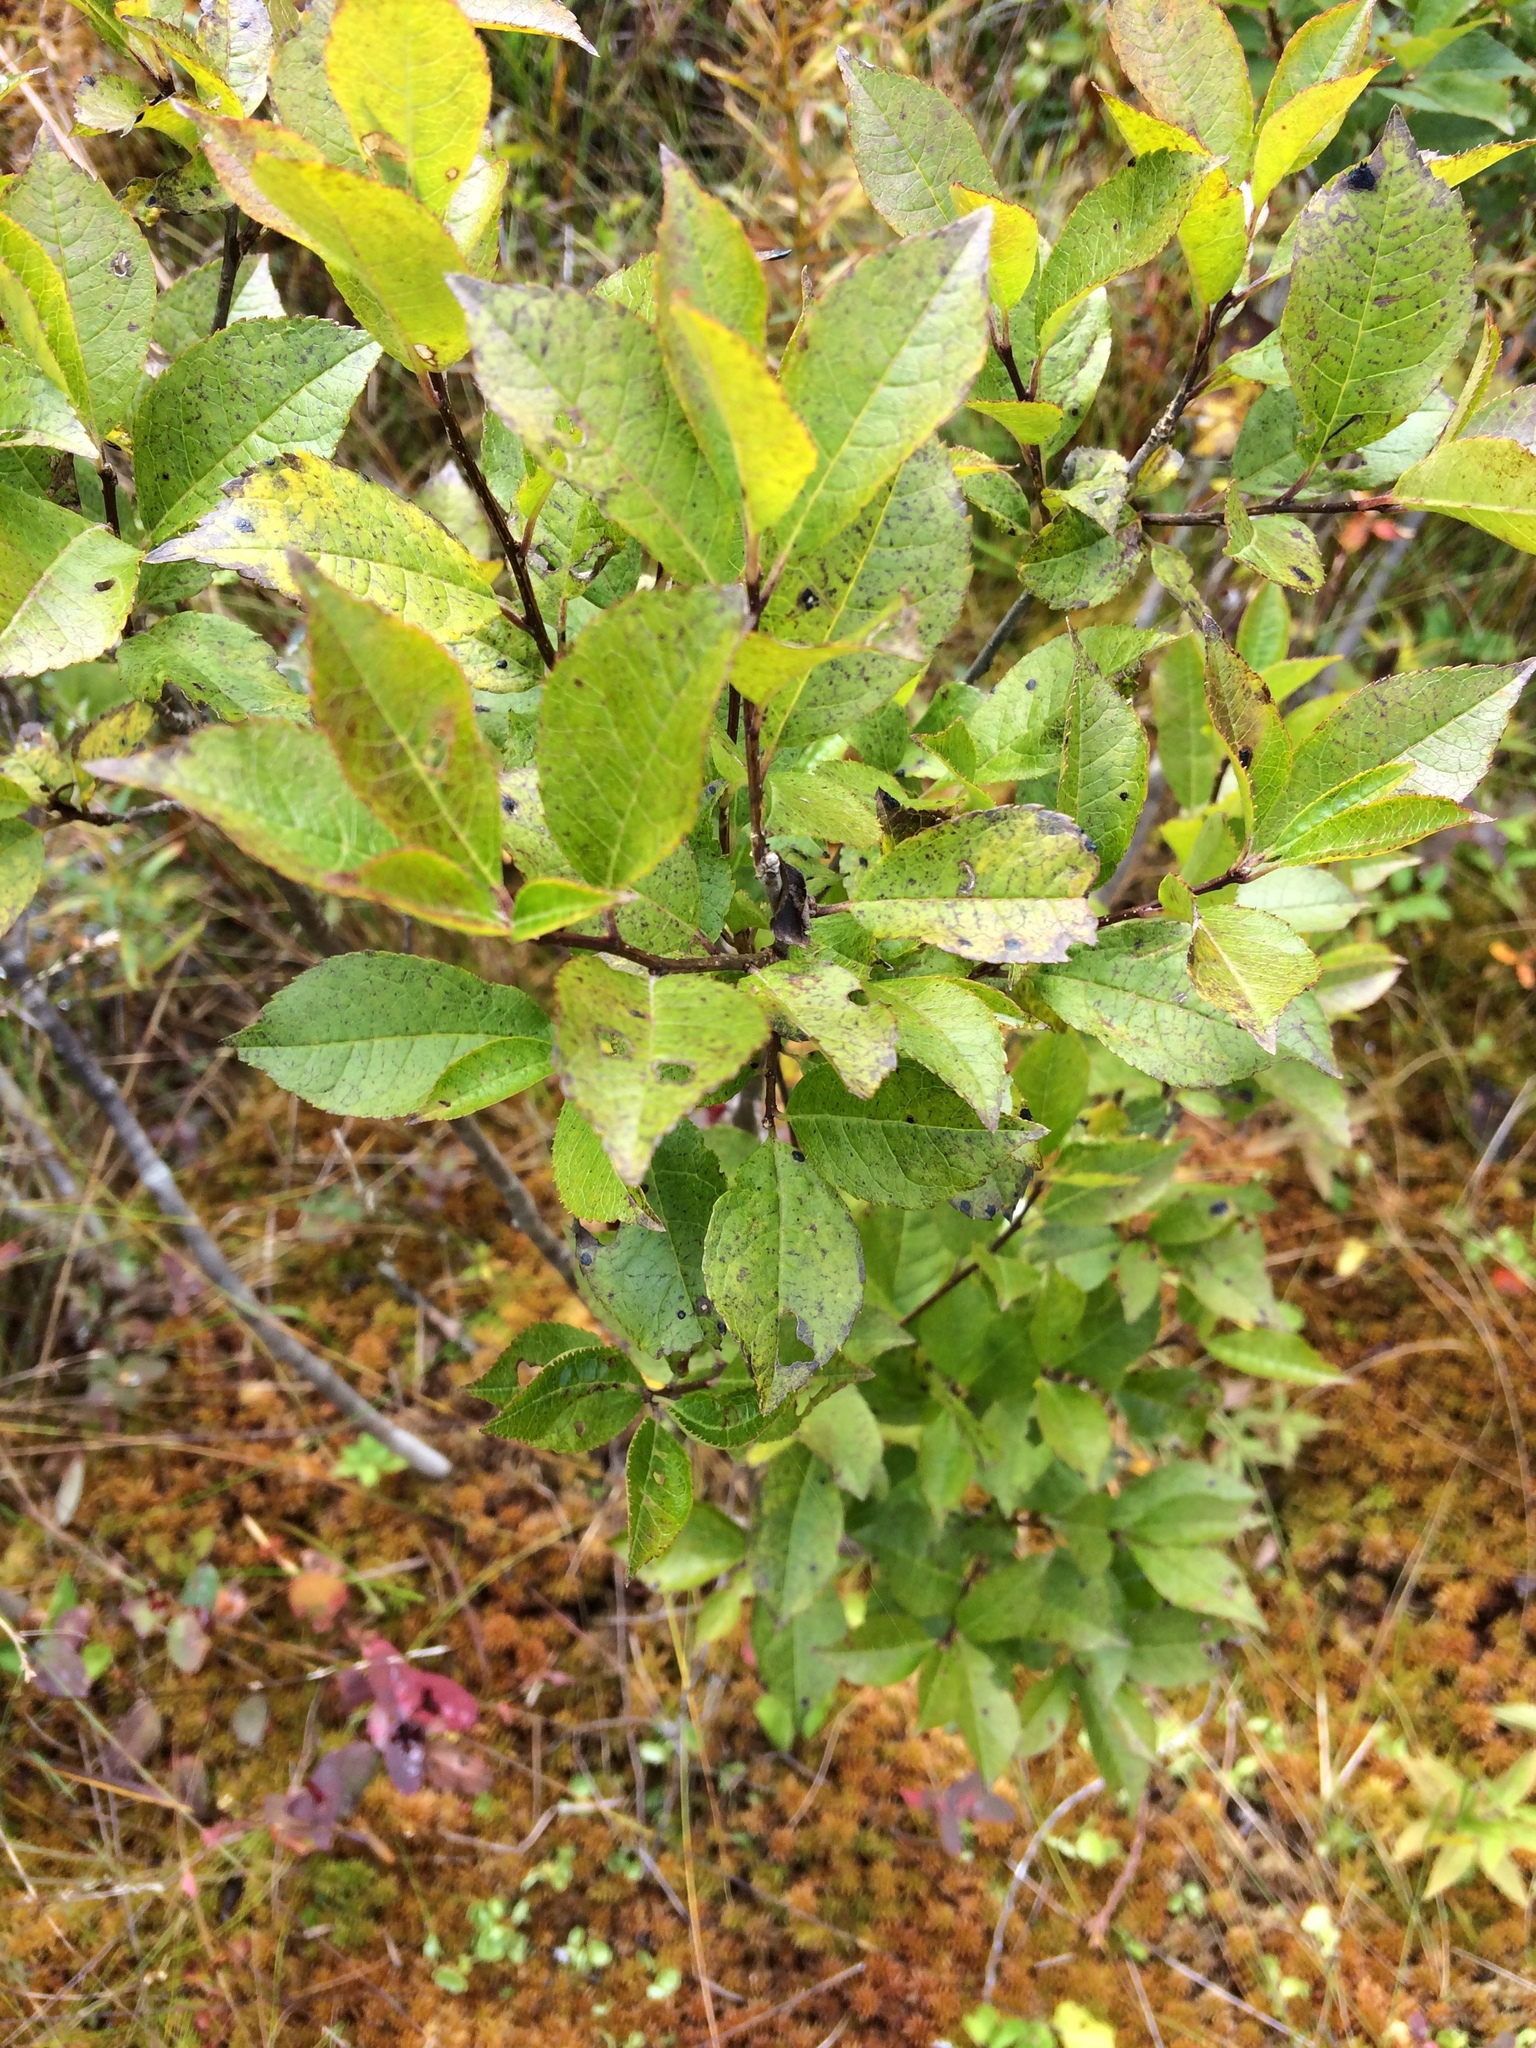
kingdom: Plantae
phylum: Tracheophyta
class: Magnoliopsida
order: Aquifoliales
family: Aquifoliaceae
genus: Ilex
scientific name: Ilex verticillata
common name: Virginia winterberry
